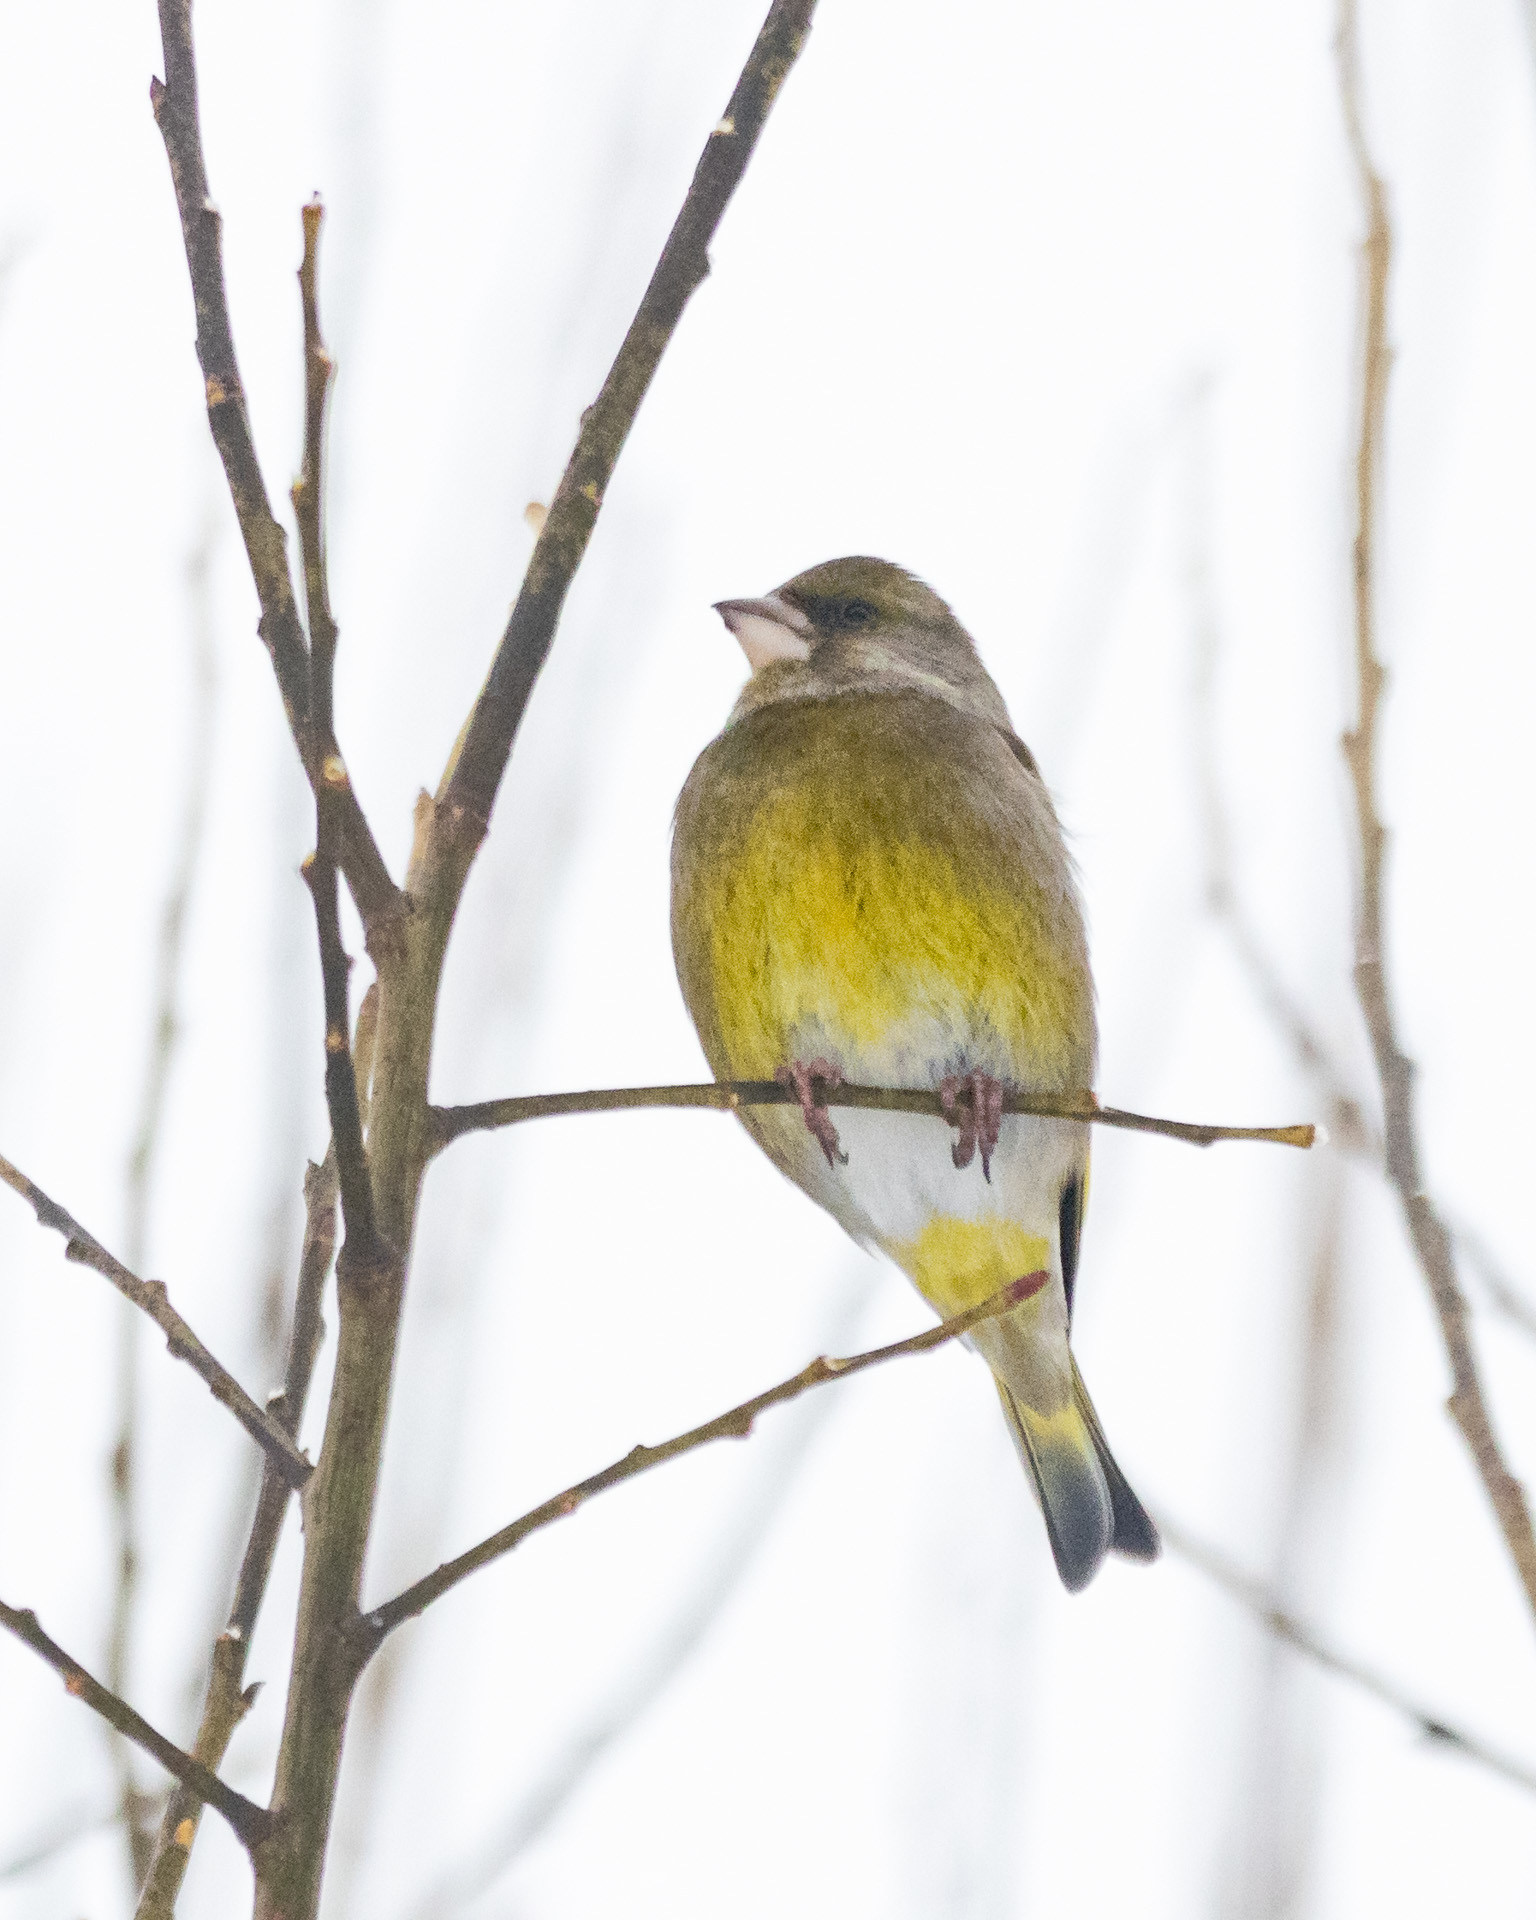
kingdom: Plantae
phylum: Tracheophyta
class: Liliopsida
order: Poales
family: Poaceae
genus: Chloris
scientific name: Chloris chloris
